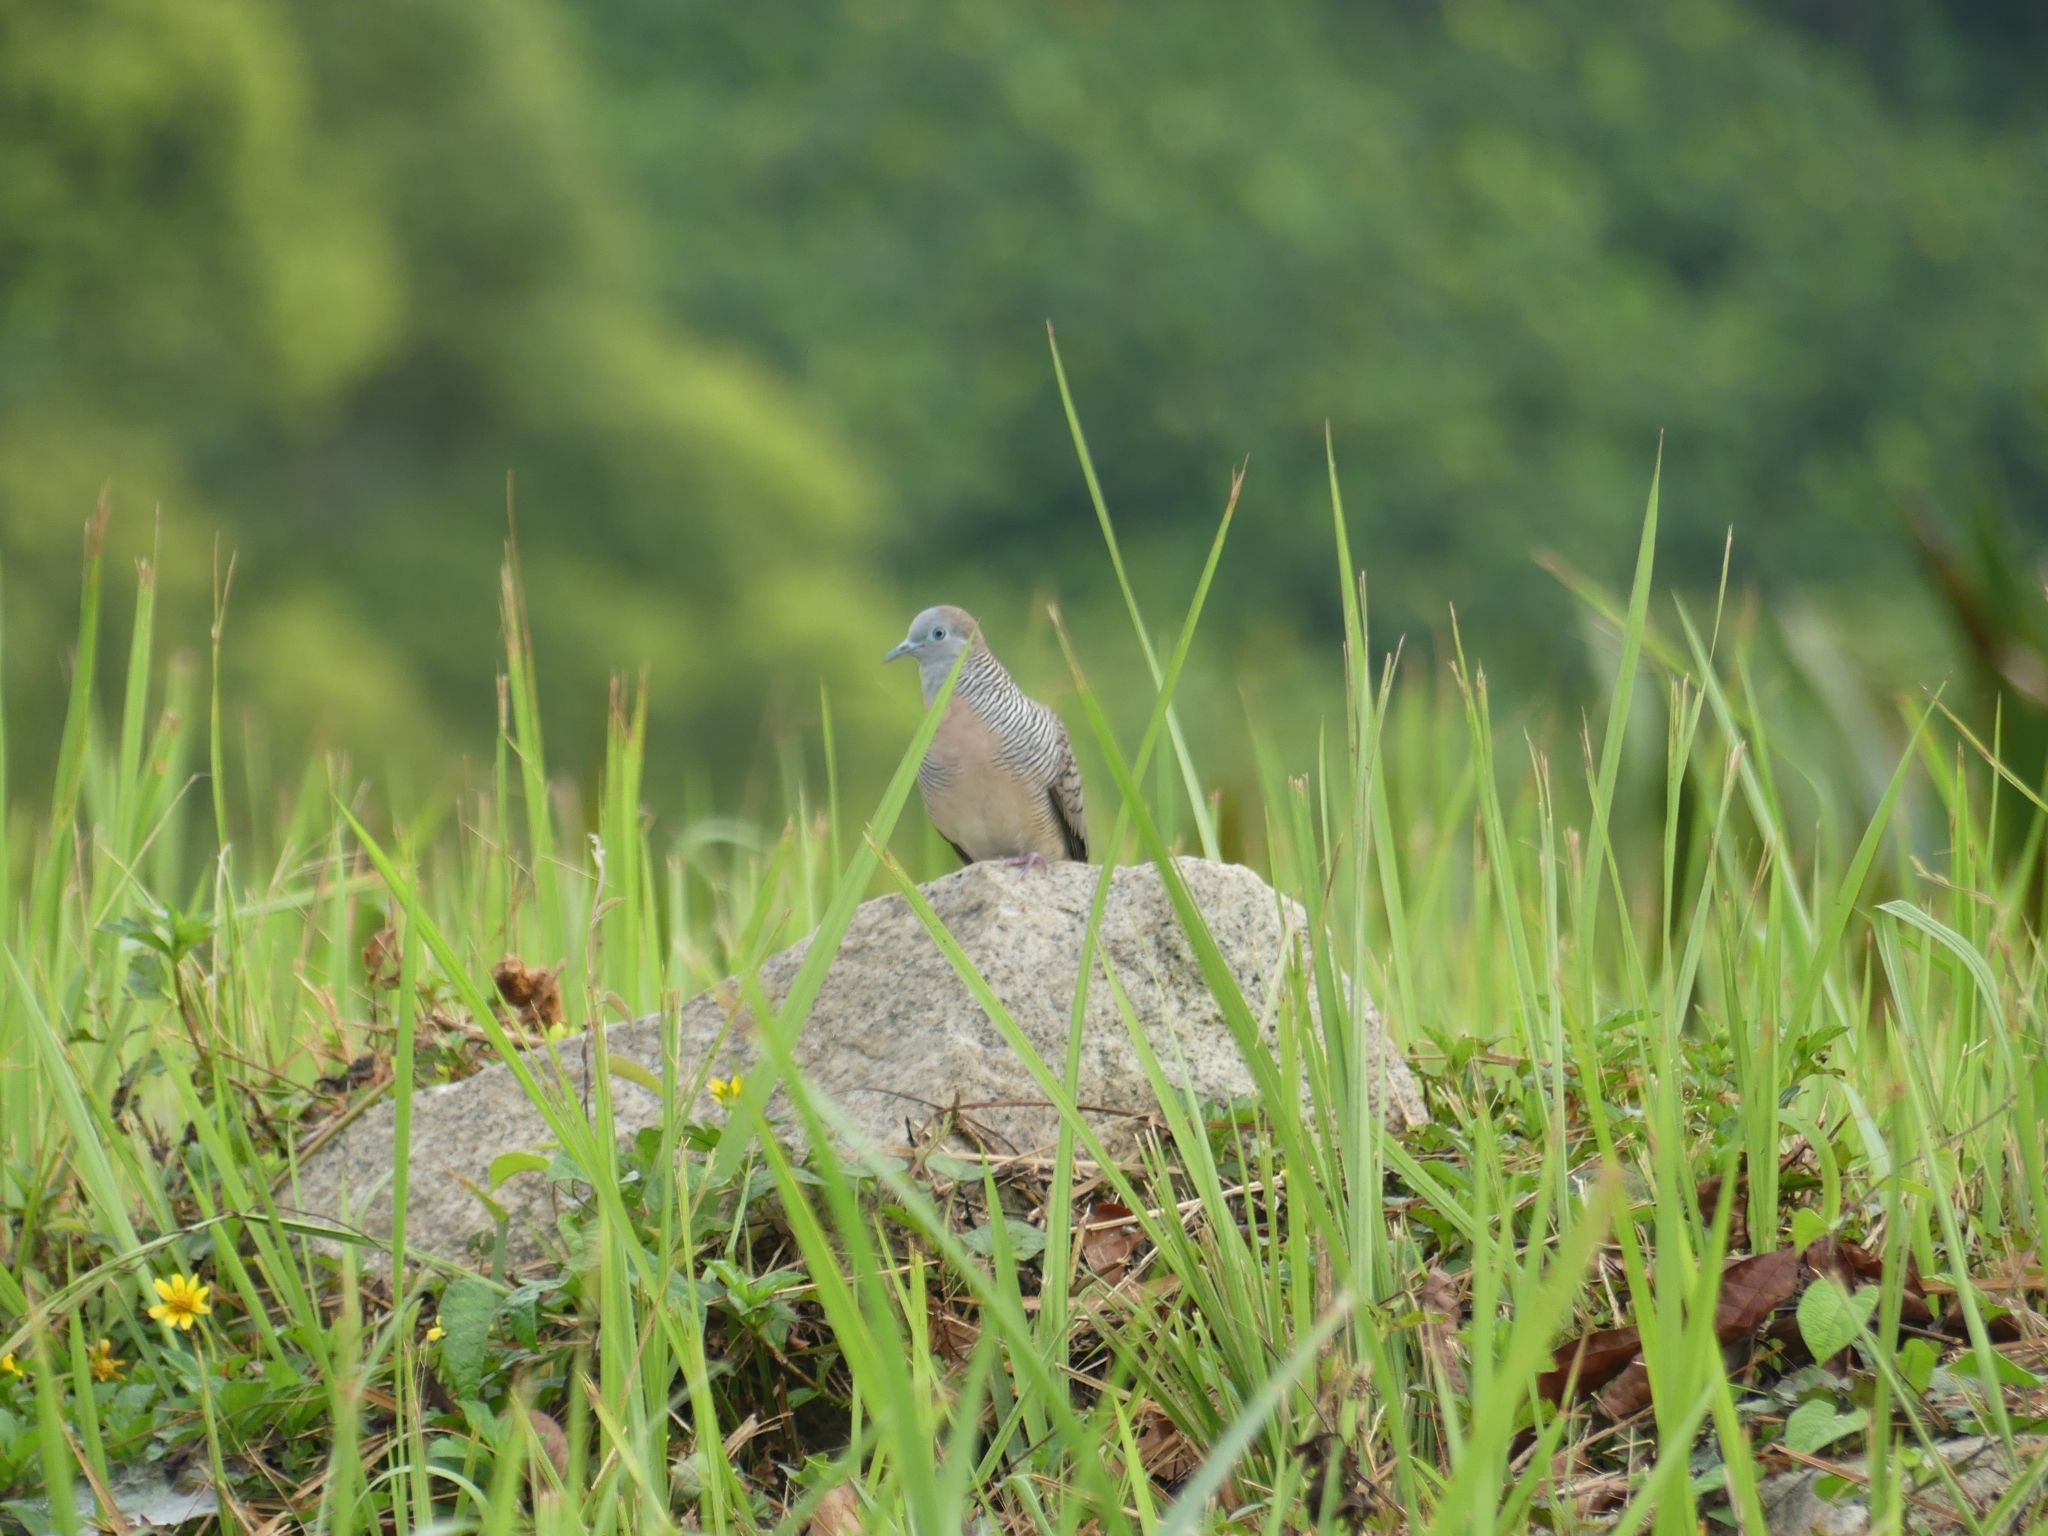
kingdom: Animalia
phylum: Chordata
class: Aves
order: Columbiformes
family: Columbidae
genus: Geopelia
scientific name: Geopelia striata
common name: Zebra dove
